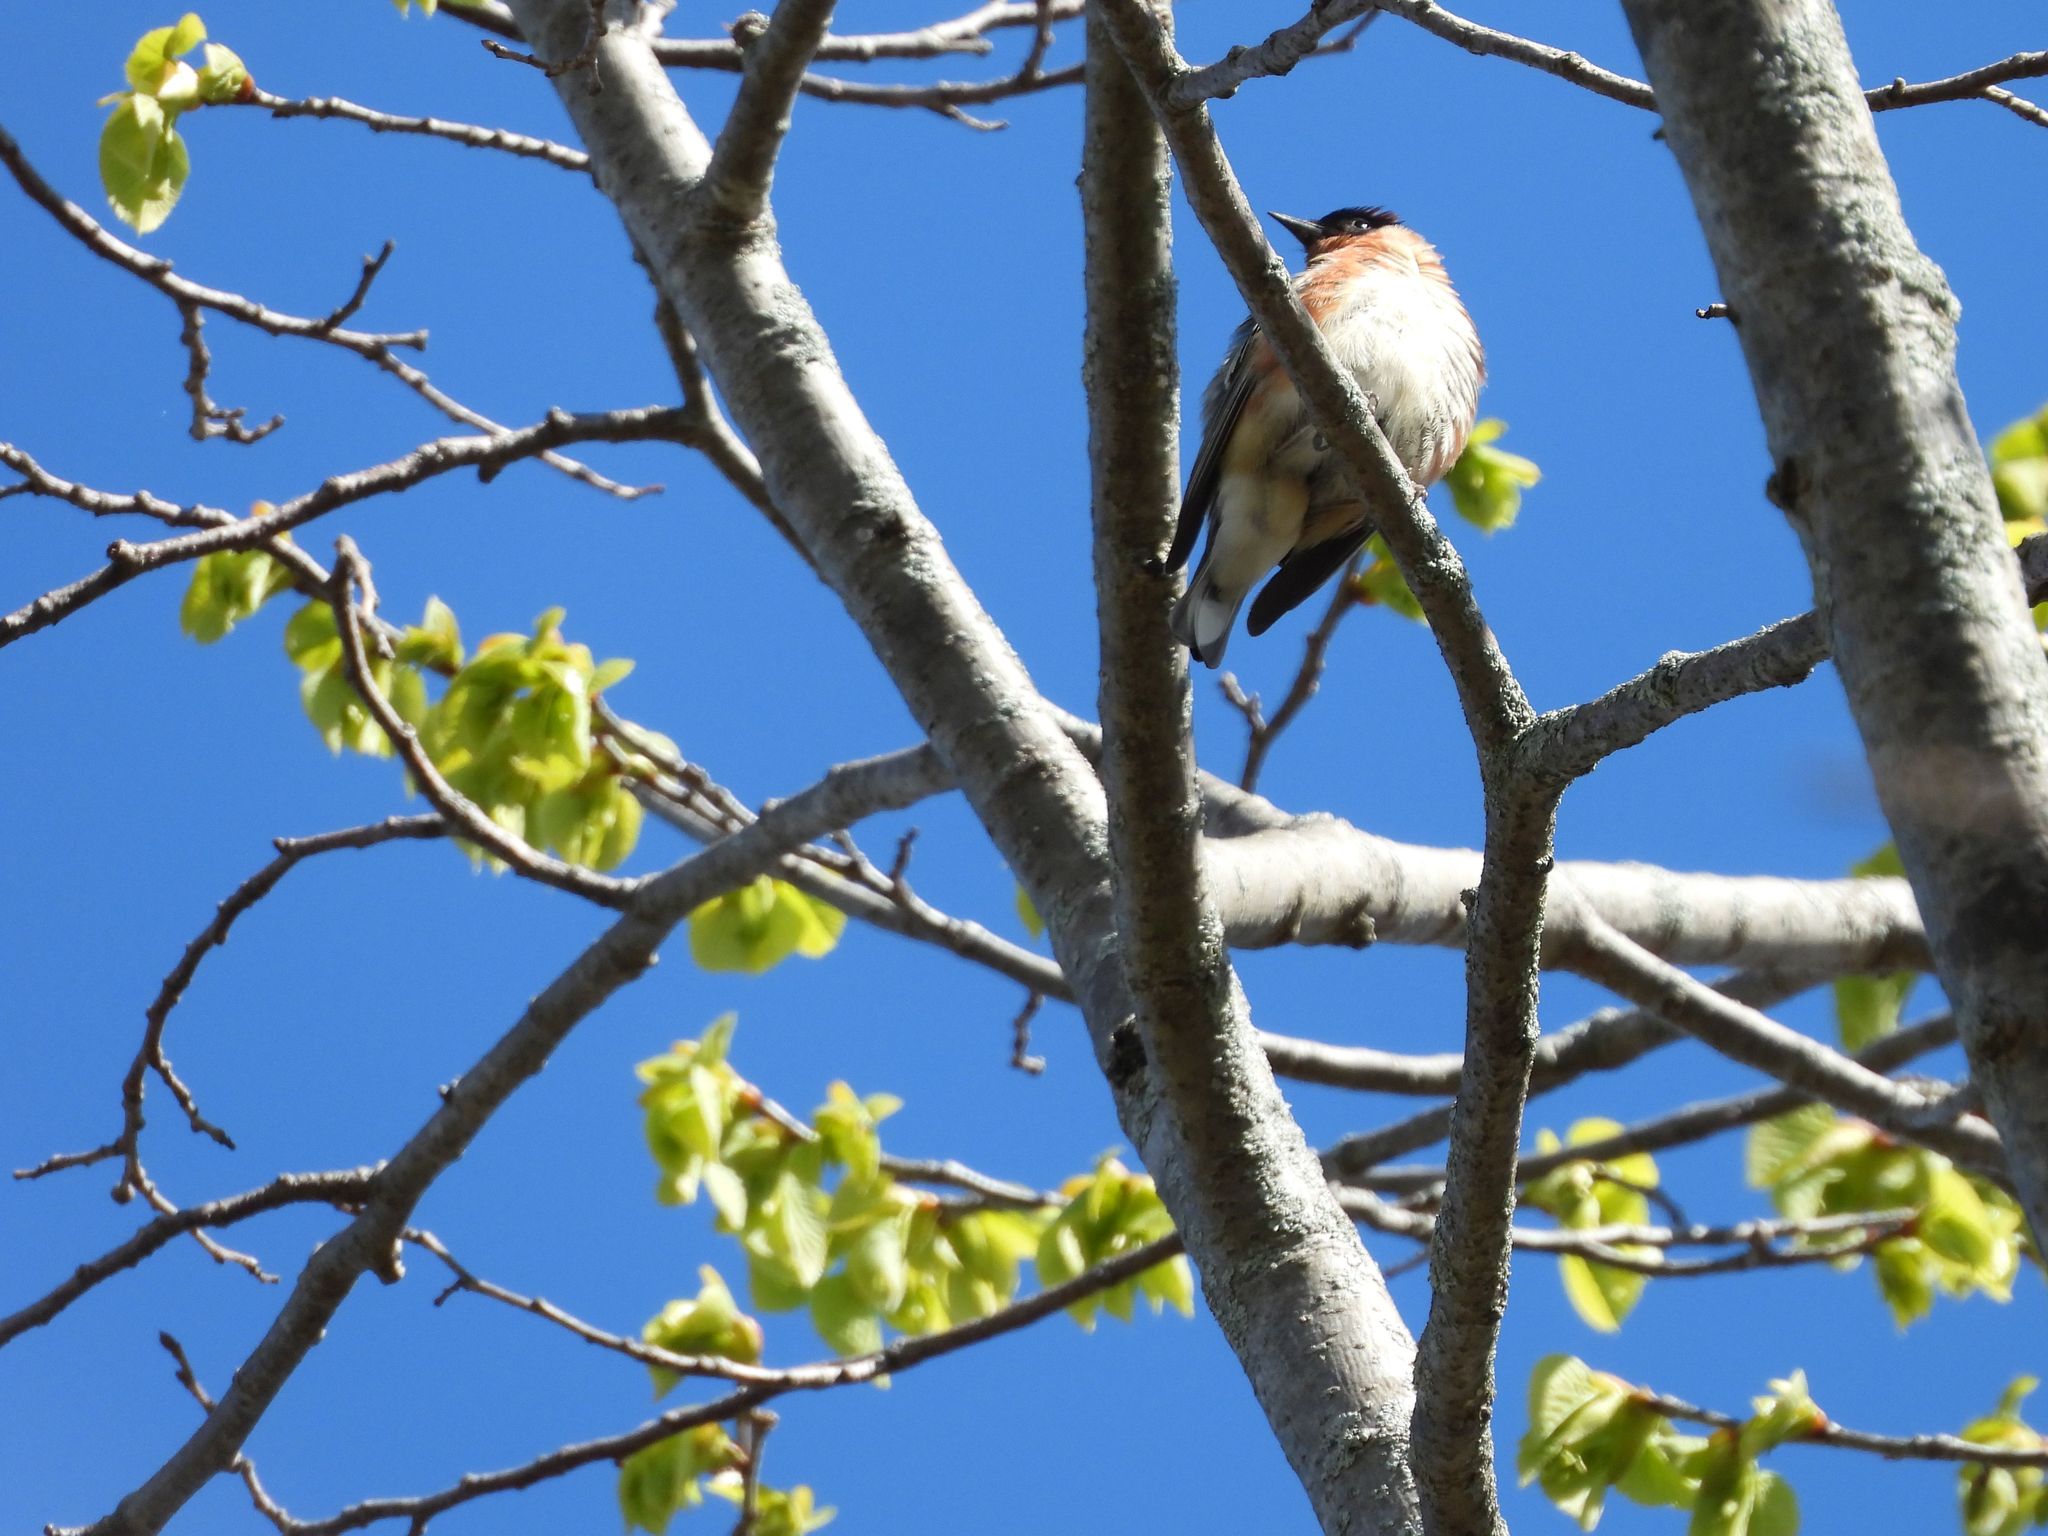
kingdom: Animalia
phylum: Chordata
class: Aves
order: Passeriformes
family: Parulidae
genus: Setophaga
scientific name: Setophaga castanea
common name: Bay-breasted warbler
